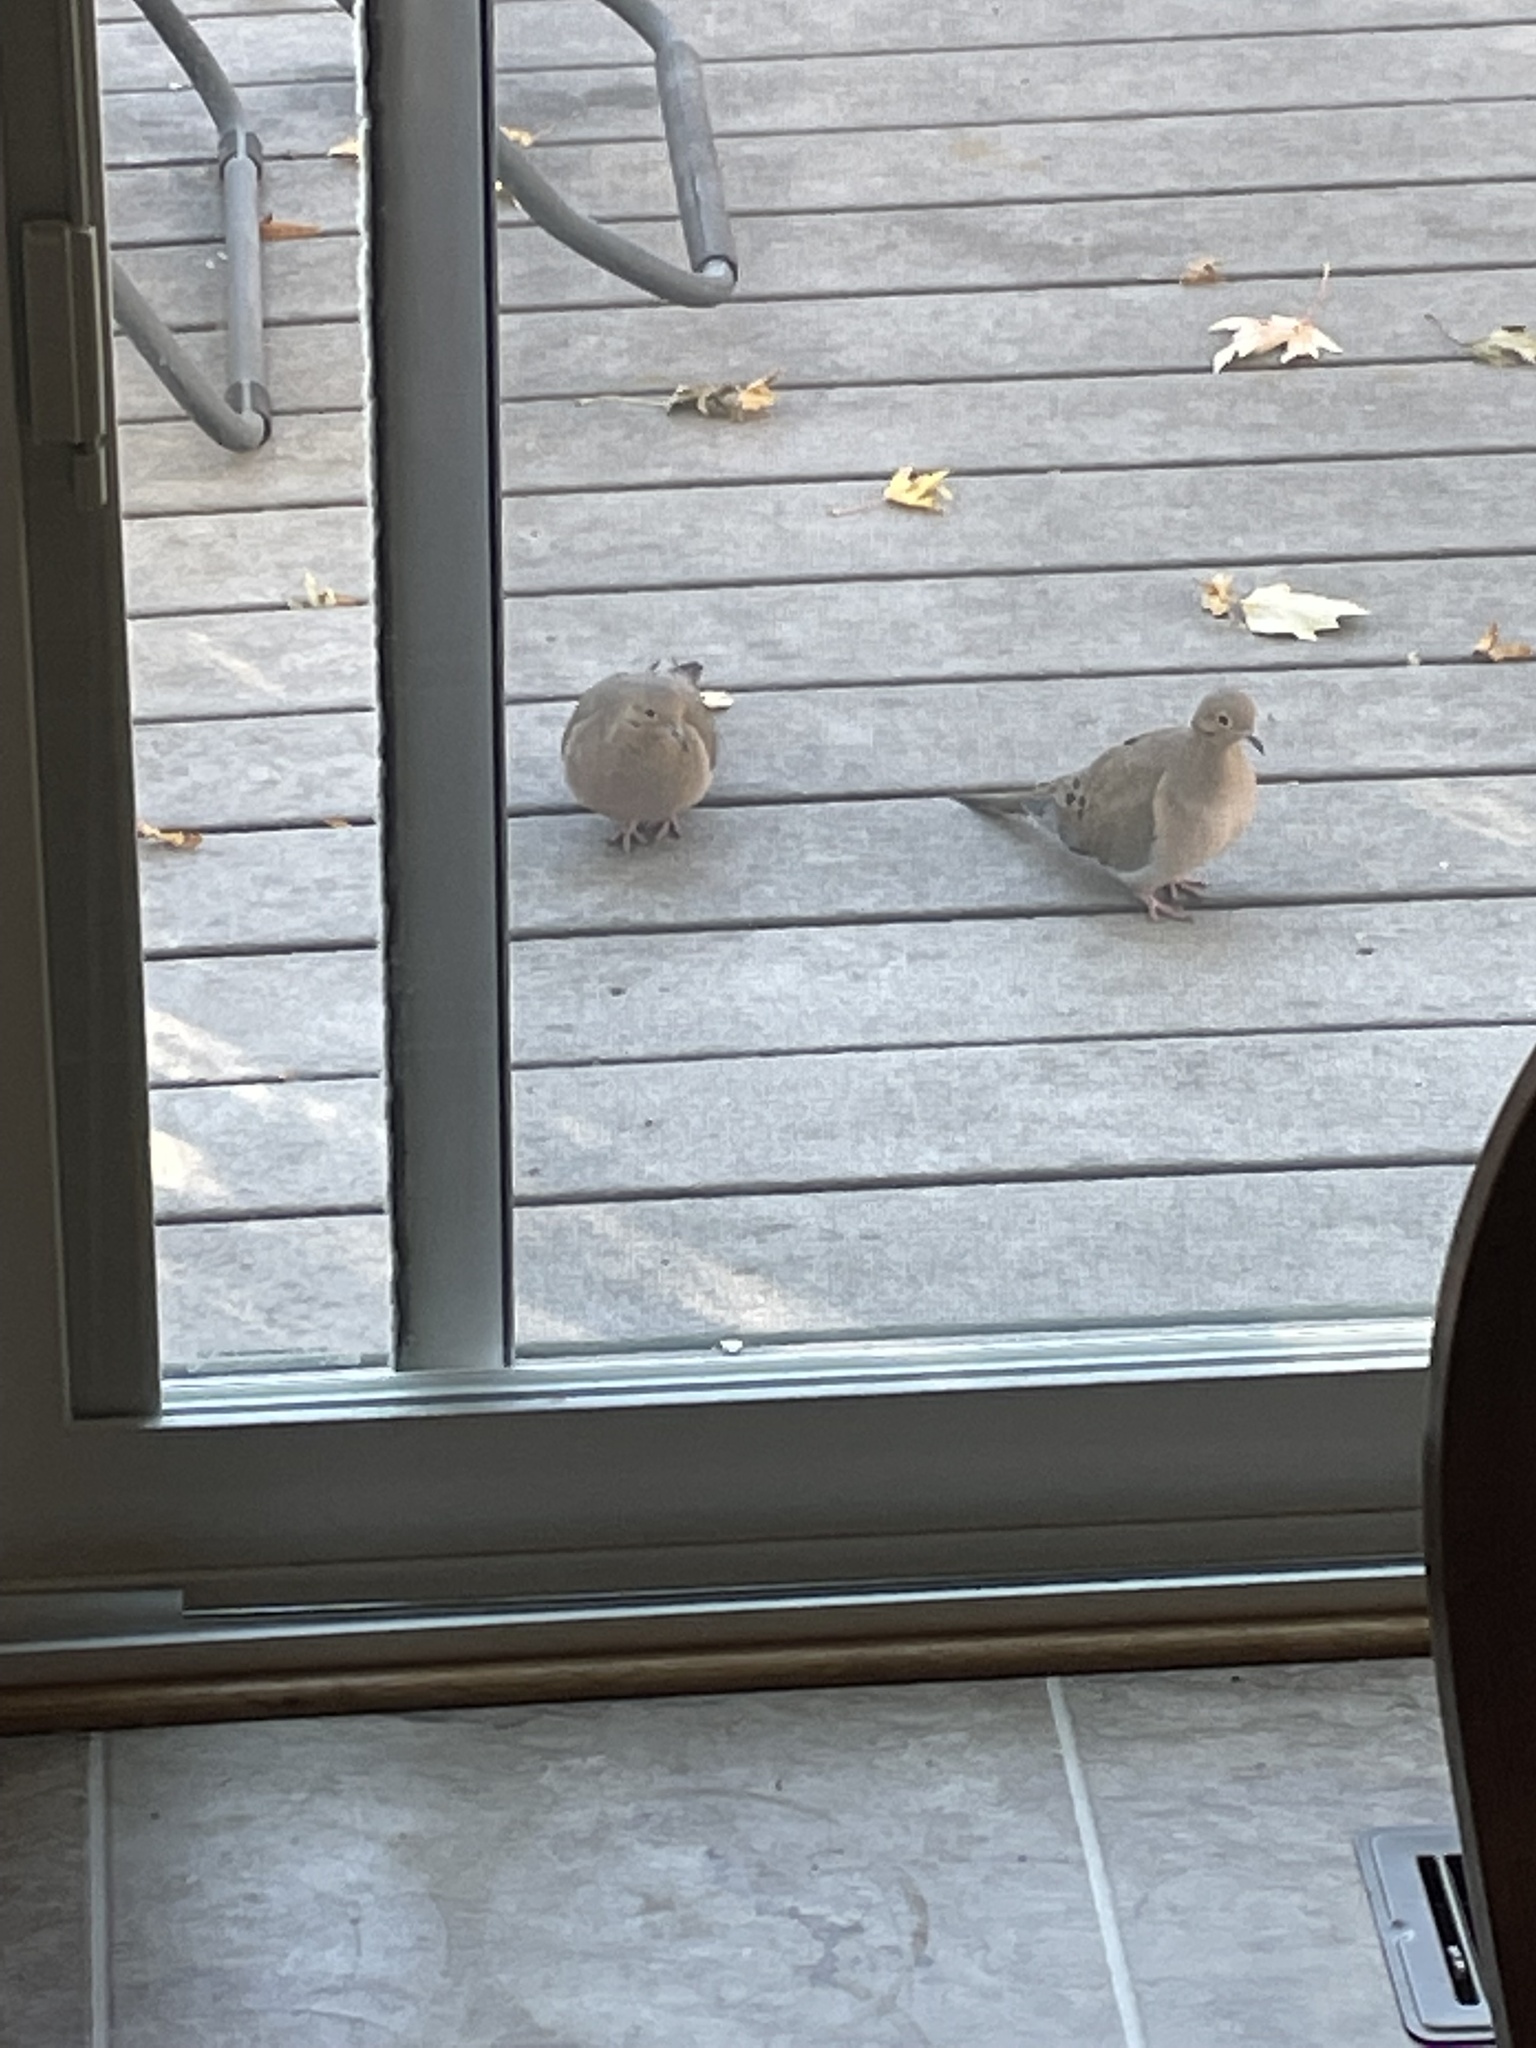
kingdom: Animalia
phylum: Chordata
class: Aves
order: Columbiformes
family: Columbidae
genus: Zenaida
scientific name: Zenaida macroura
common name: Mourning dove
